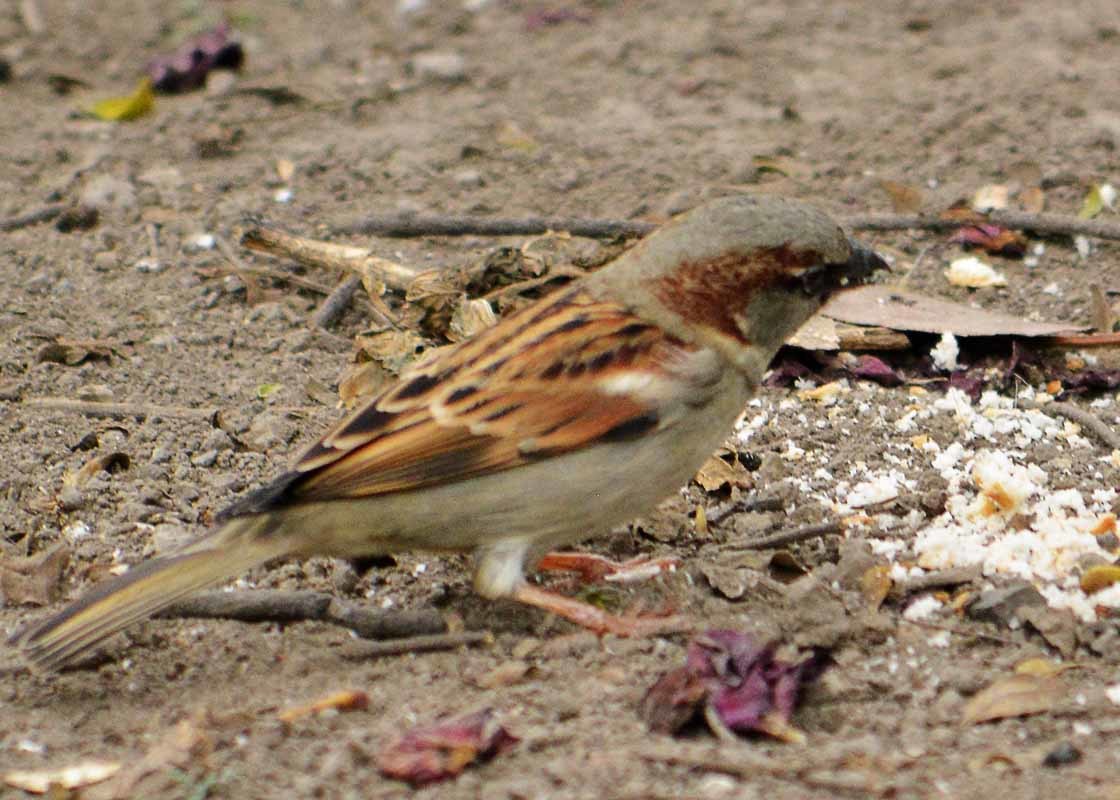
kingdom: Animalia
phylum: Chordata
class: Aves
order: Passeriformes
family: Passeridae
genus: Passer
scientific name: Passer domesticus
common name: House sparrow
